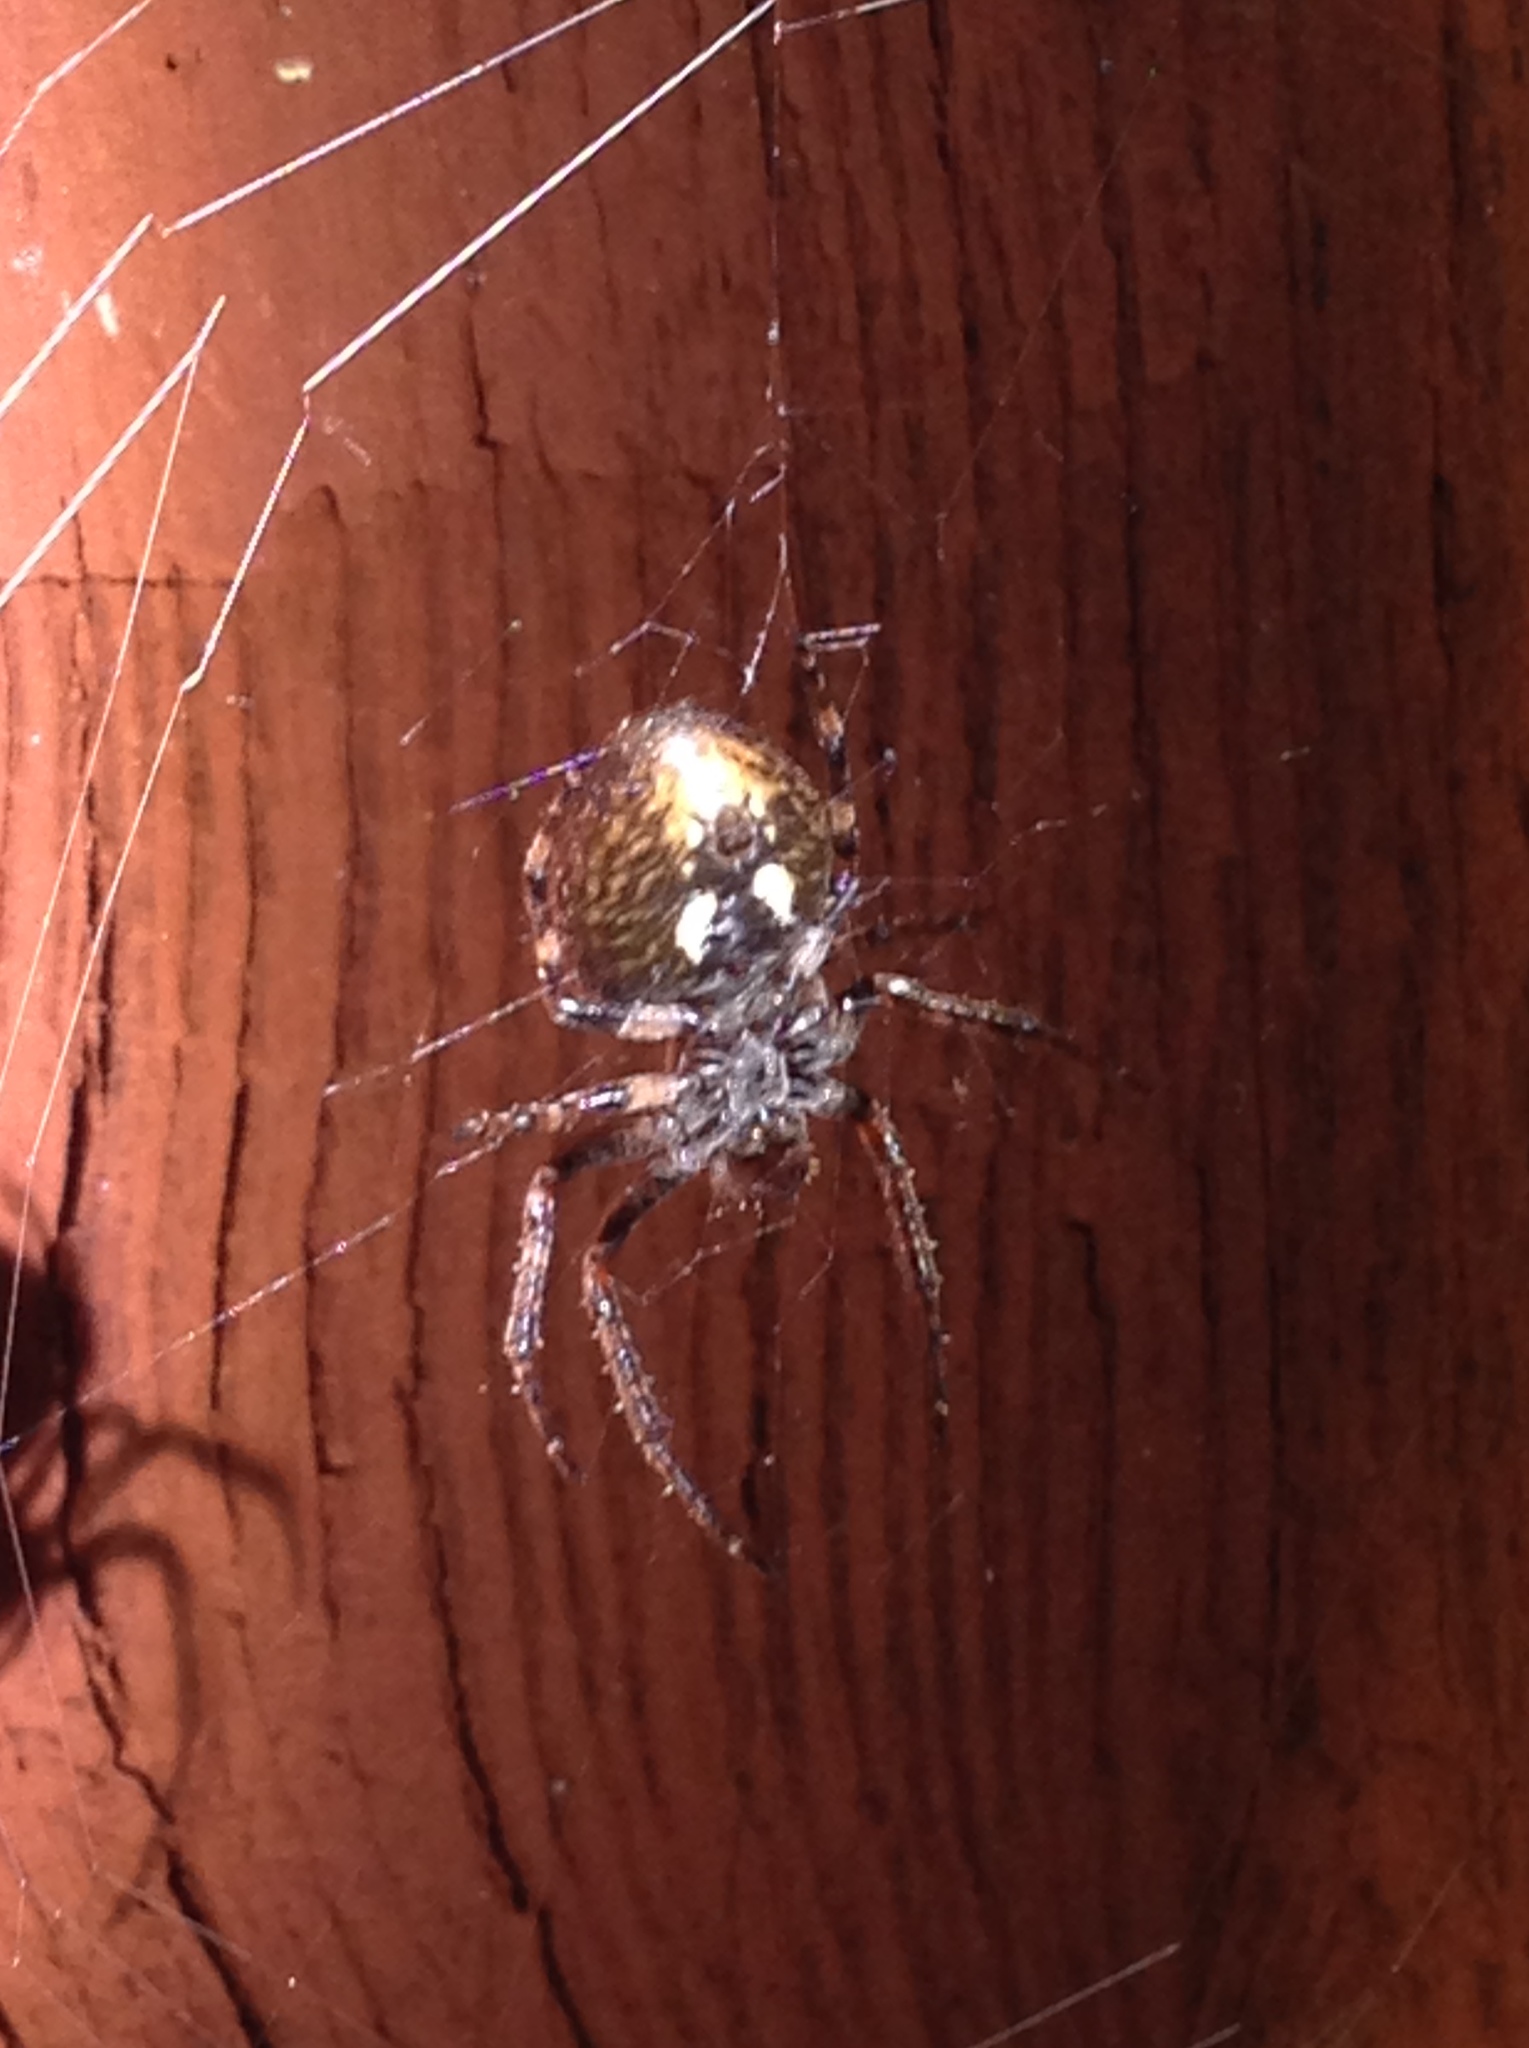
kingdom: Animalia
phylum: Arthropoda
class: Arachnida
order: Araneae
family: Araneidae
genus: Nuctenea
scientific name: Nuctenea umbratica
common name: Toad spider
